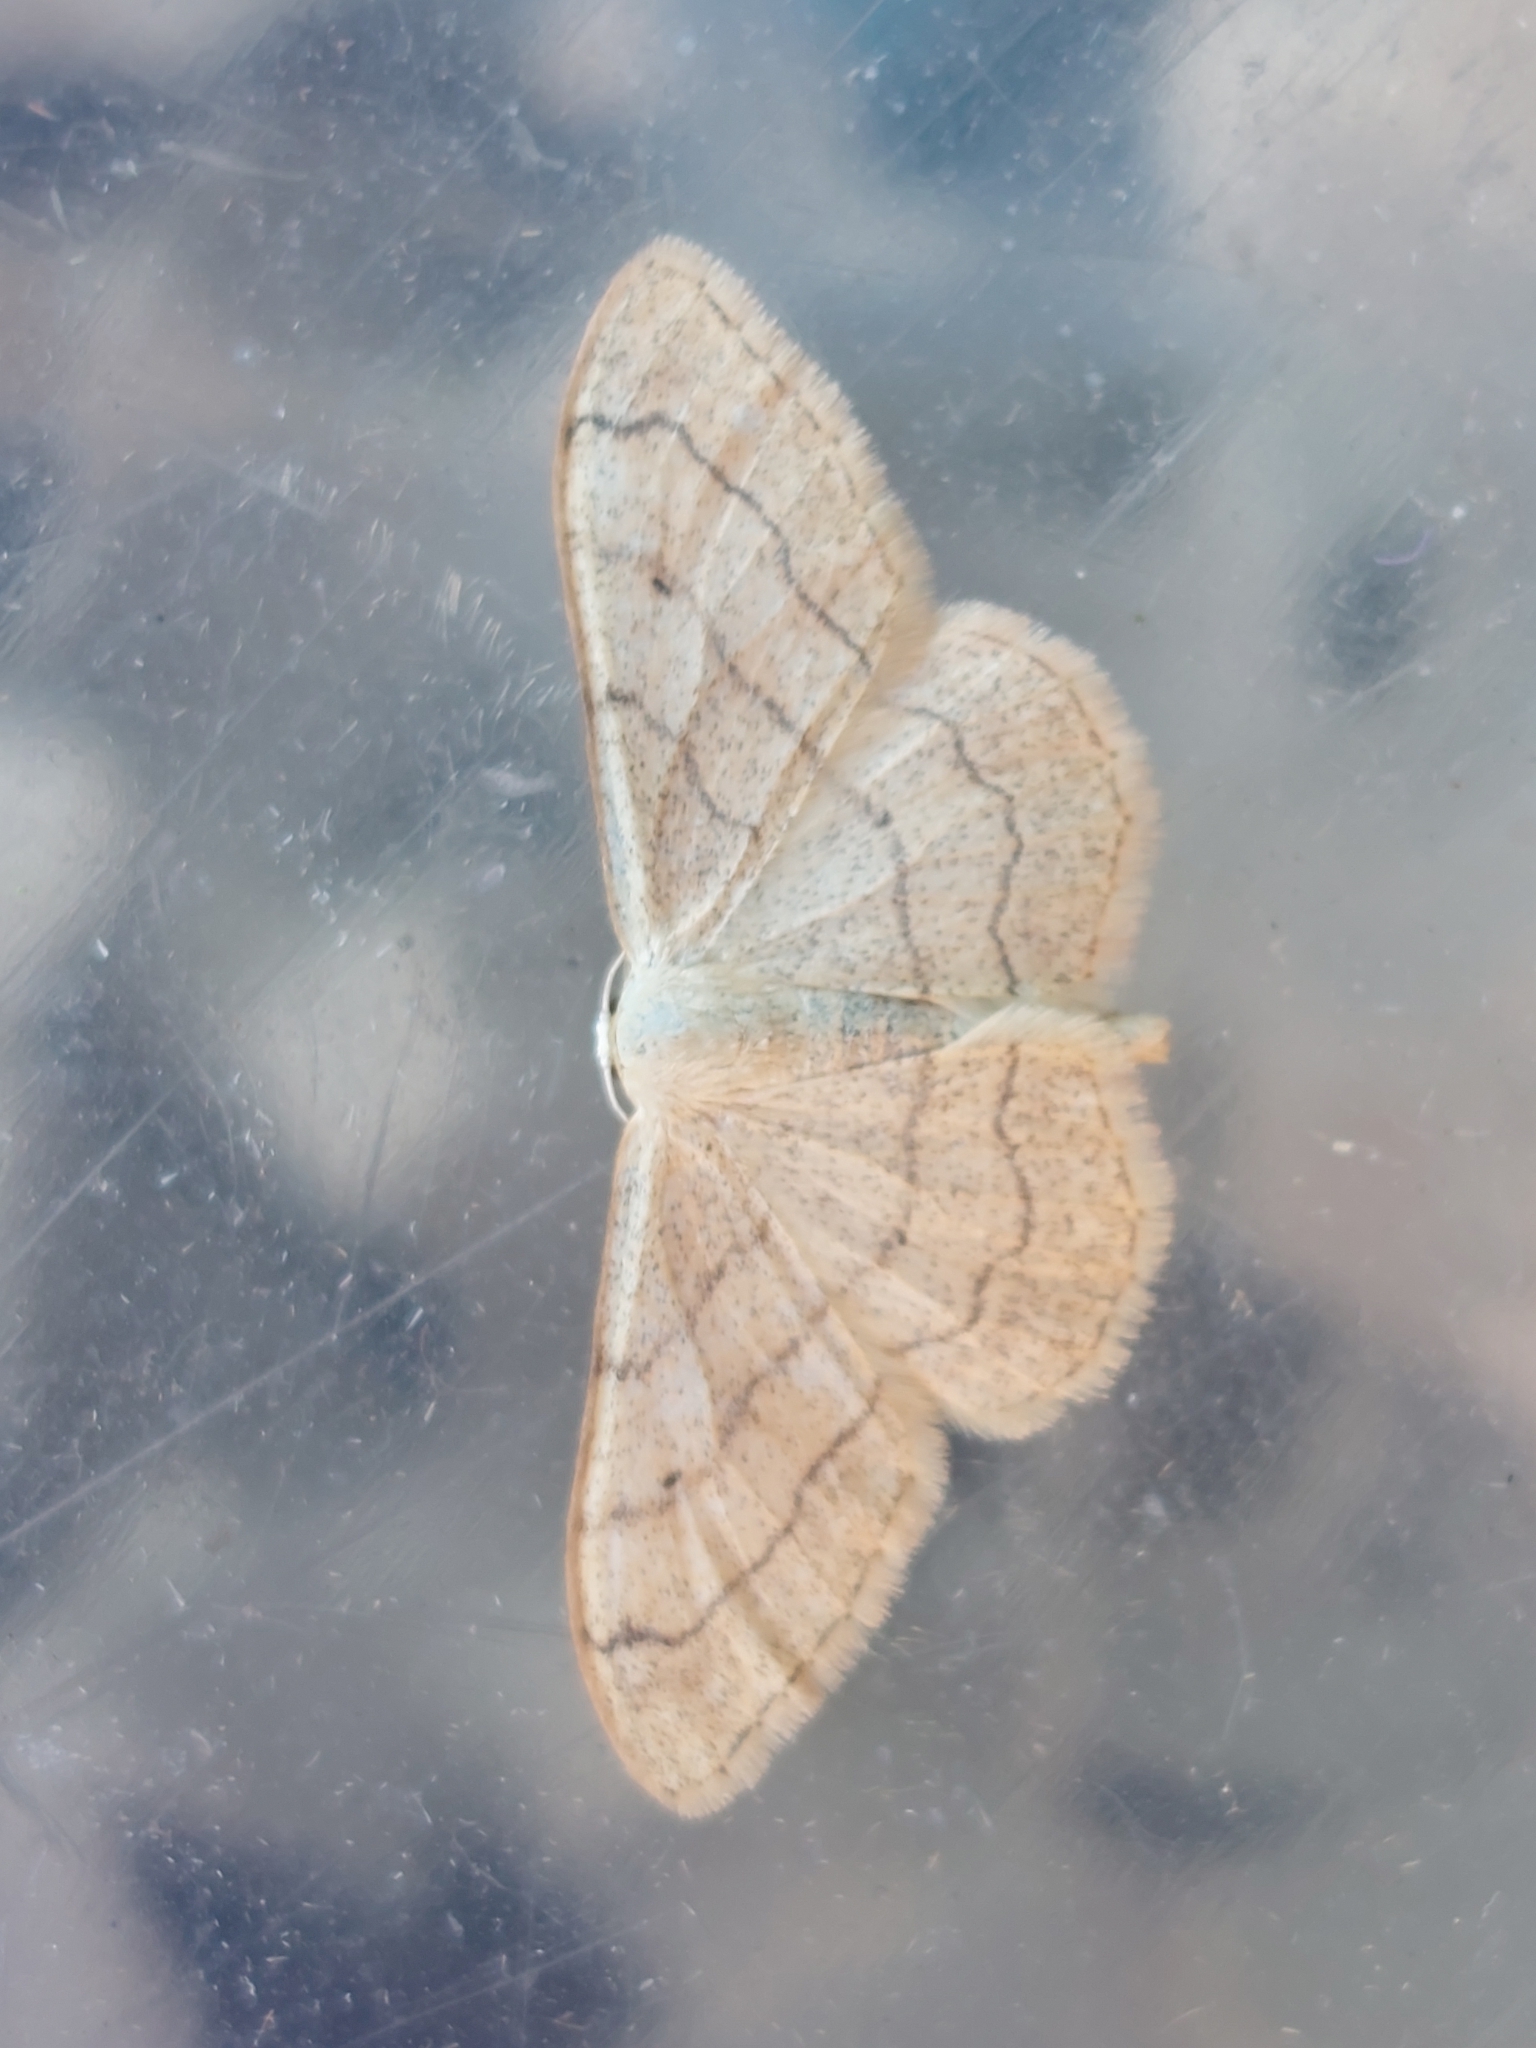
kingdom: Animalia
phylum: Arthropoda
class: Insecta
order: Lepidoptera
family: Geometridae
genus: Idaea
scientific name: Idaea aversata
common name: Riband wave
